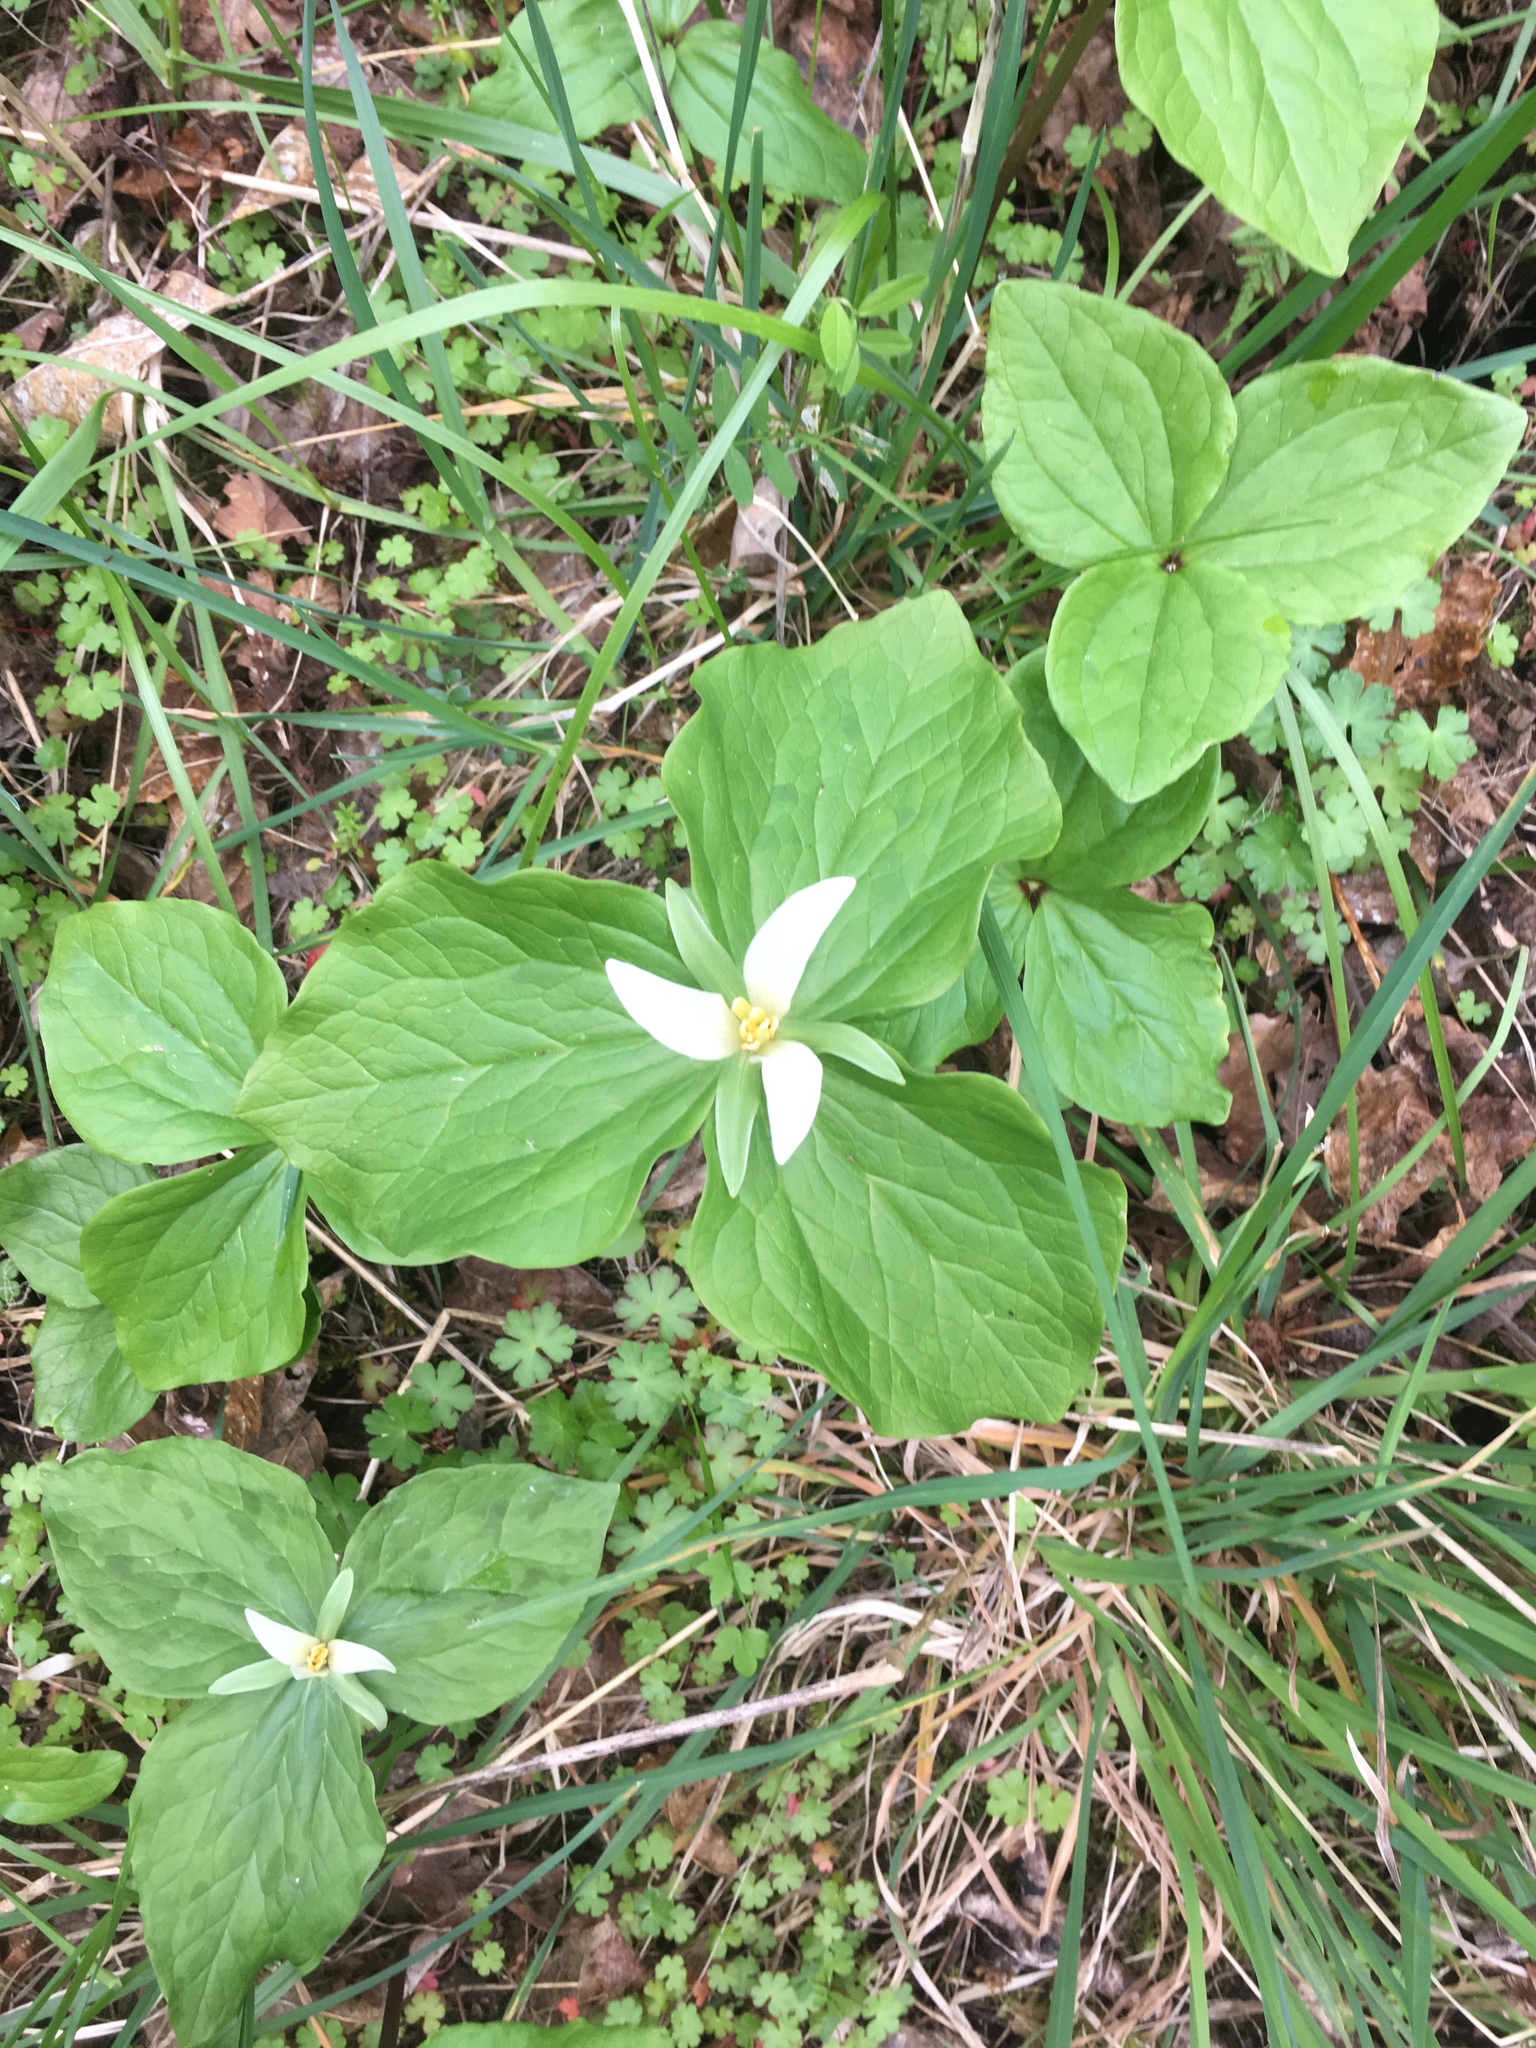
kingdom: Plantae
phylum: Tracheophyta
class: Liliopsida
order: Liliales
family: Melanthiaceae
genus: Trillium
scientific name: Trillium albidum
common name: Freeman's trillium
